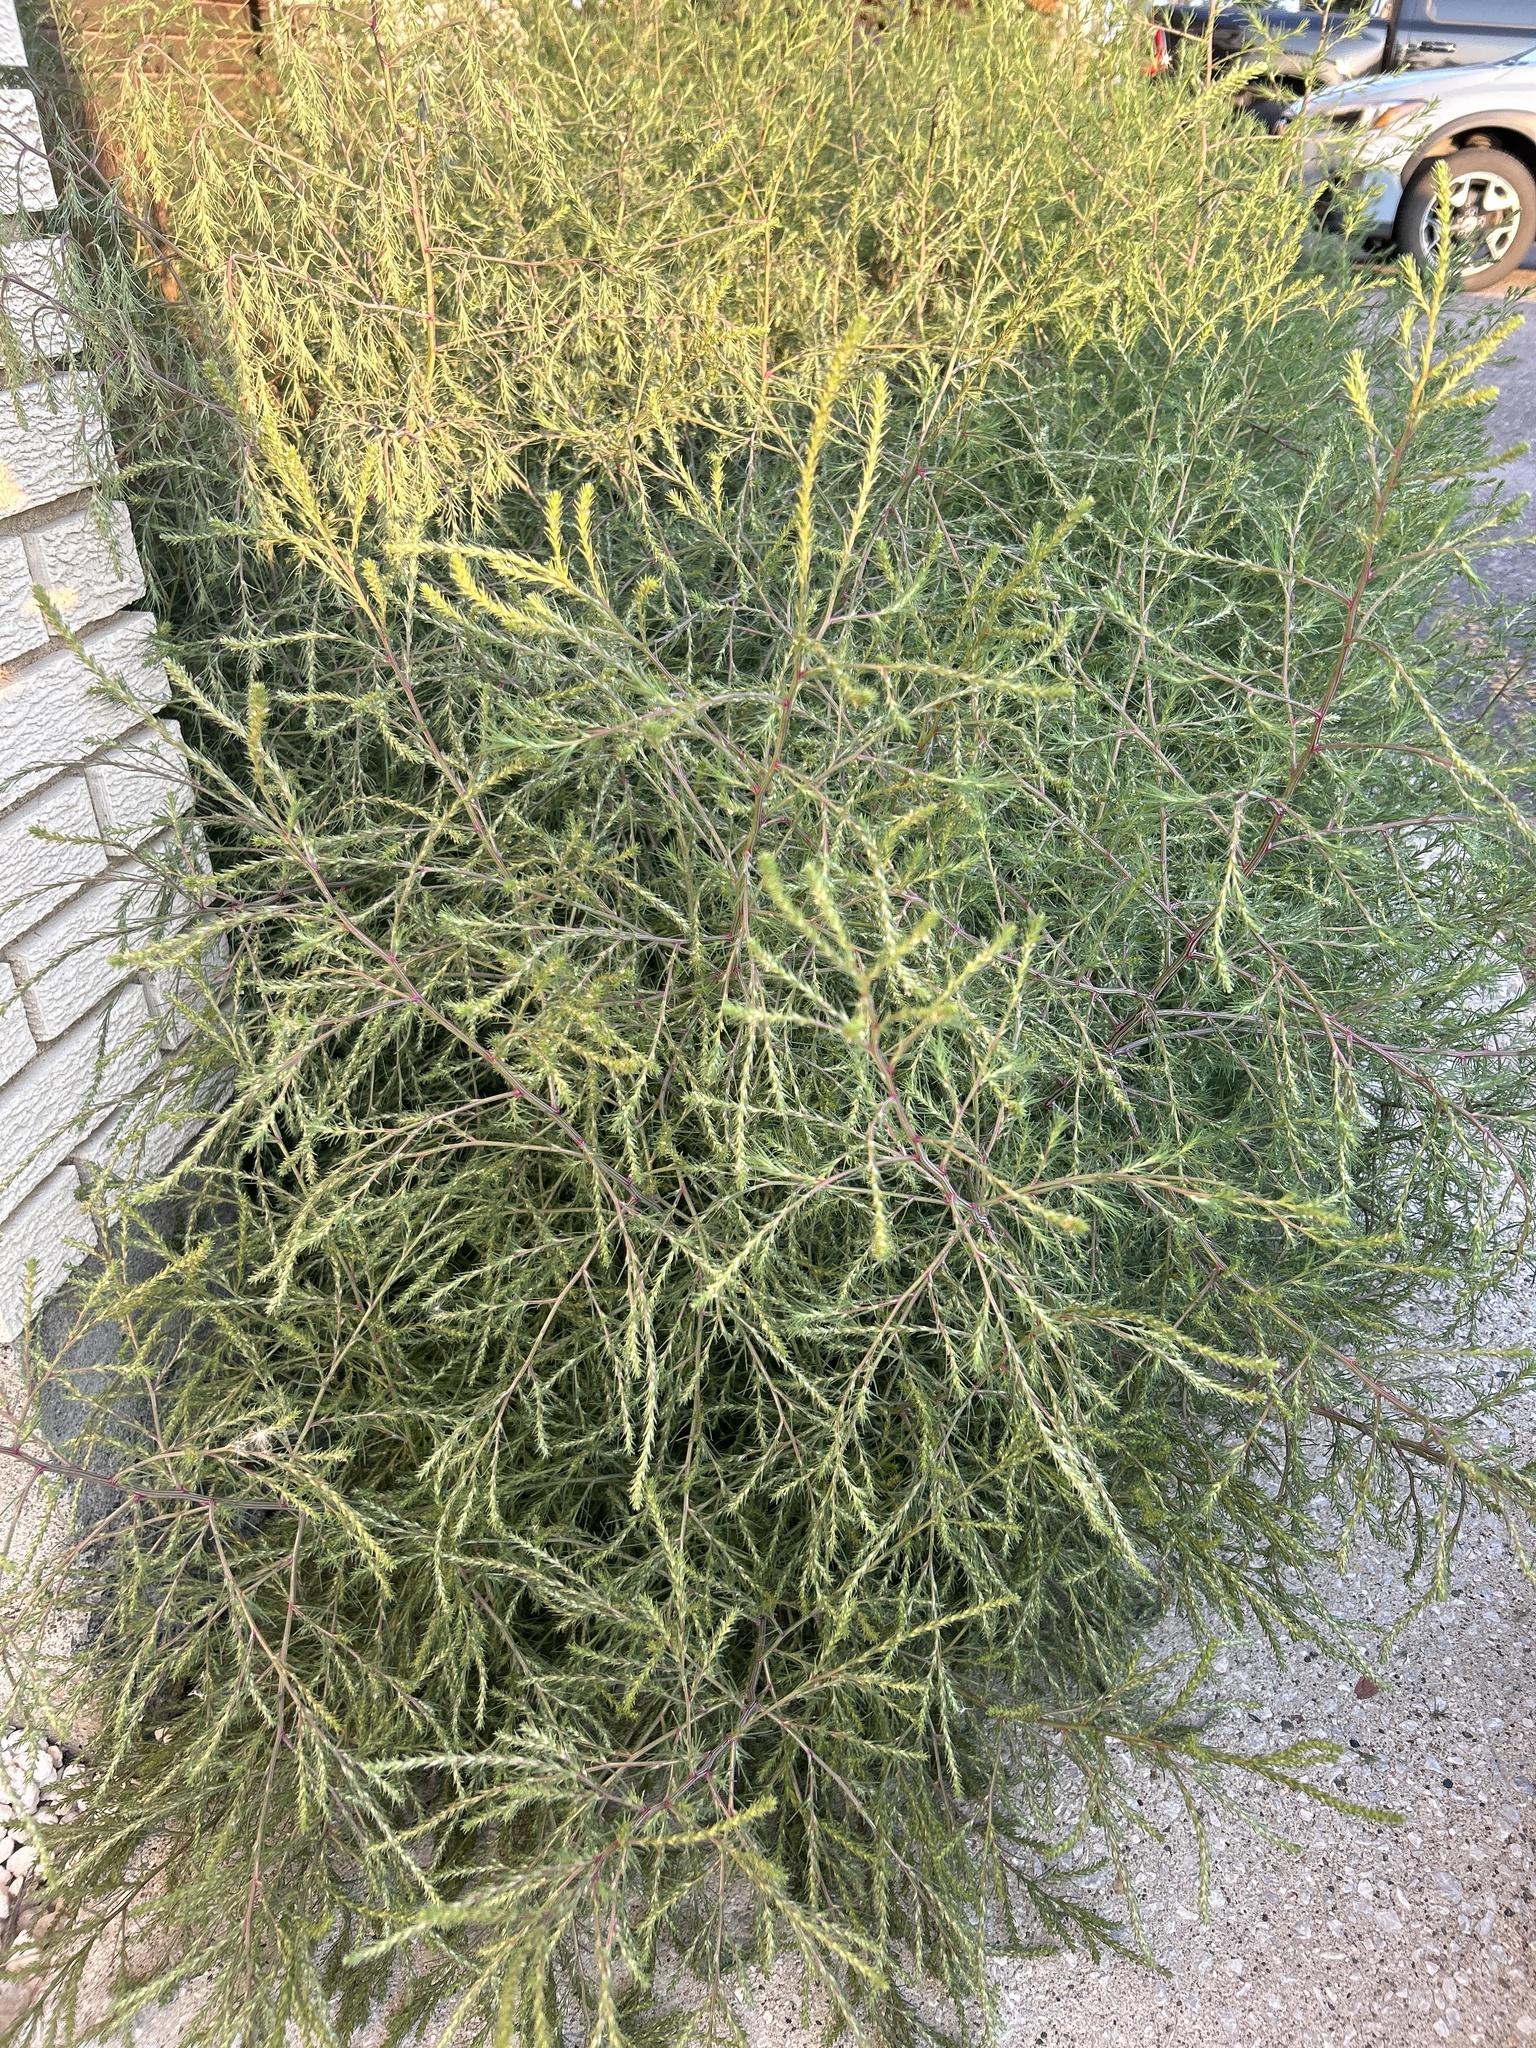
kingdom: Plantae
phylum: Tracheophyta
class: Magnoliopsida
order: Caryophyllales
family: Amaranthaceae
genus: Salsola
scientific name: Salsola collina
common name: Tumbleweed
